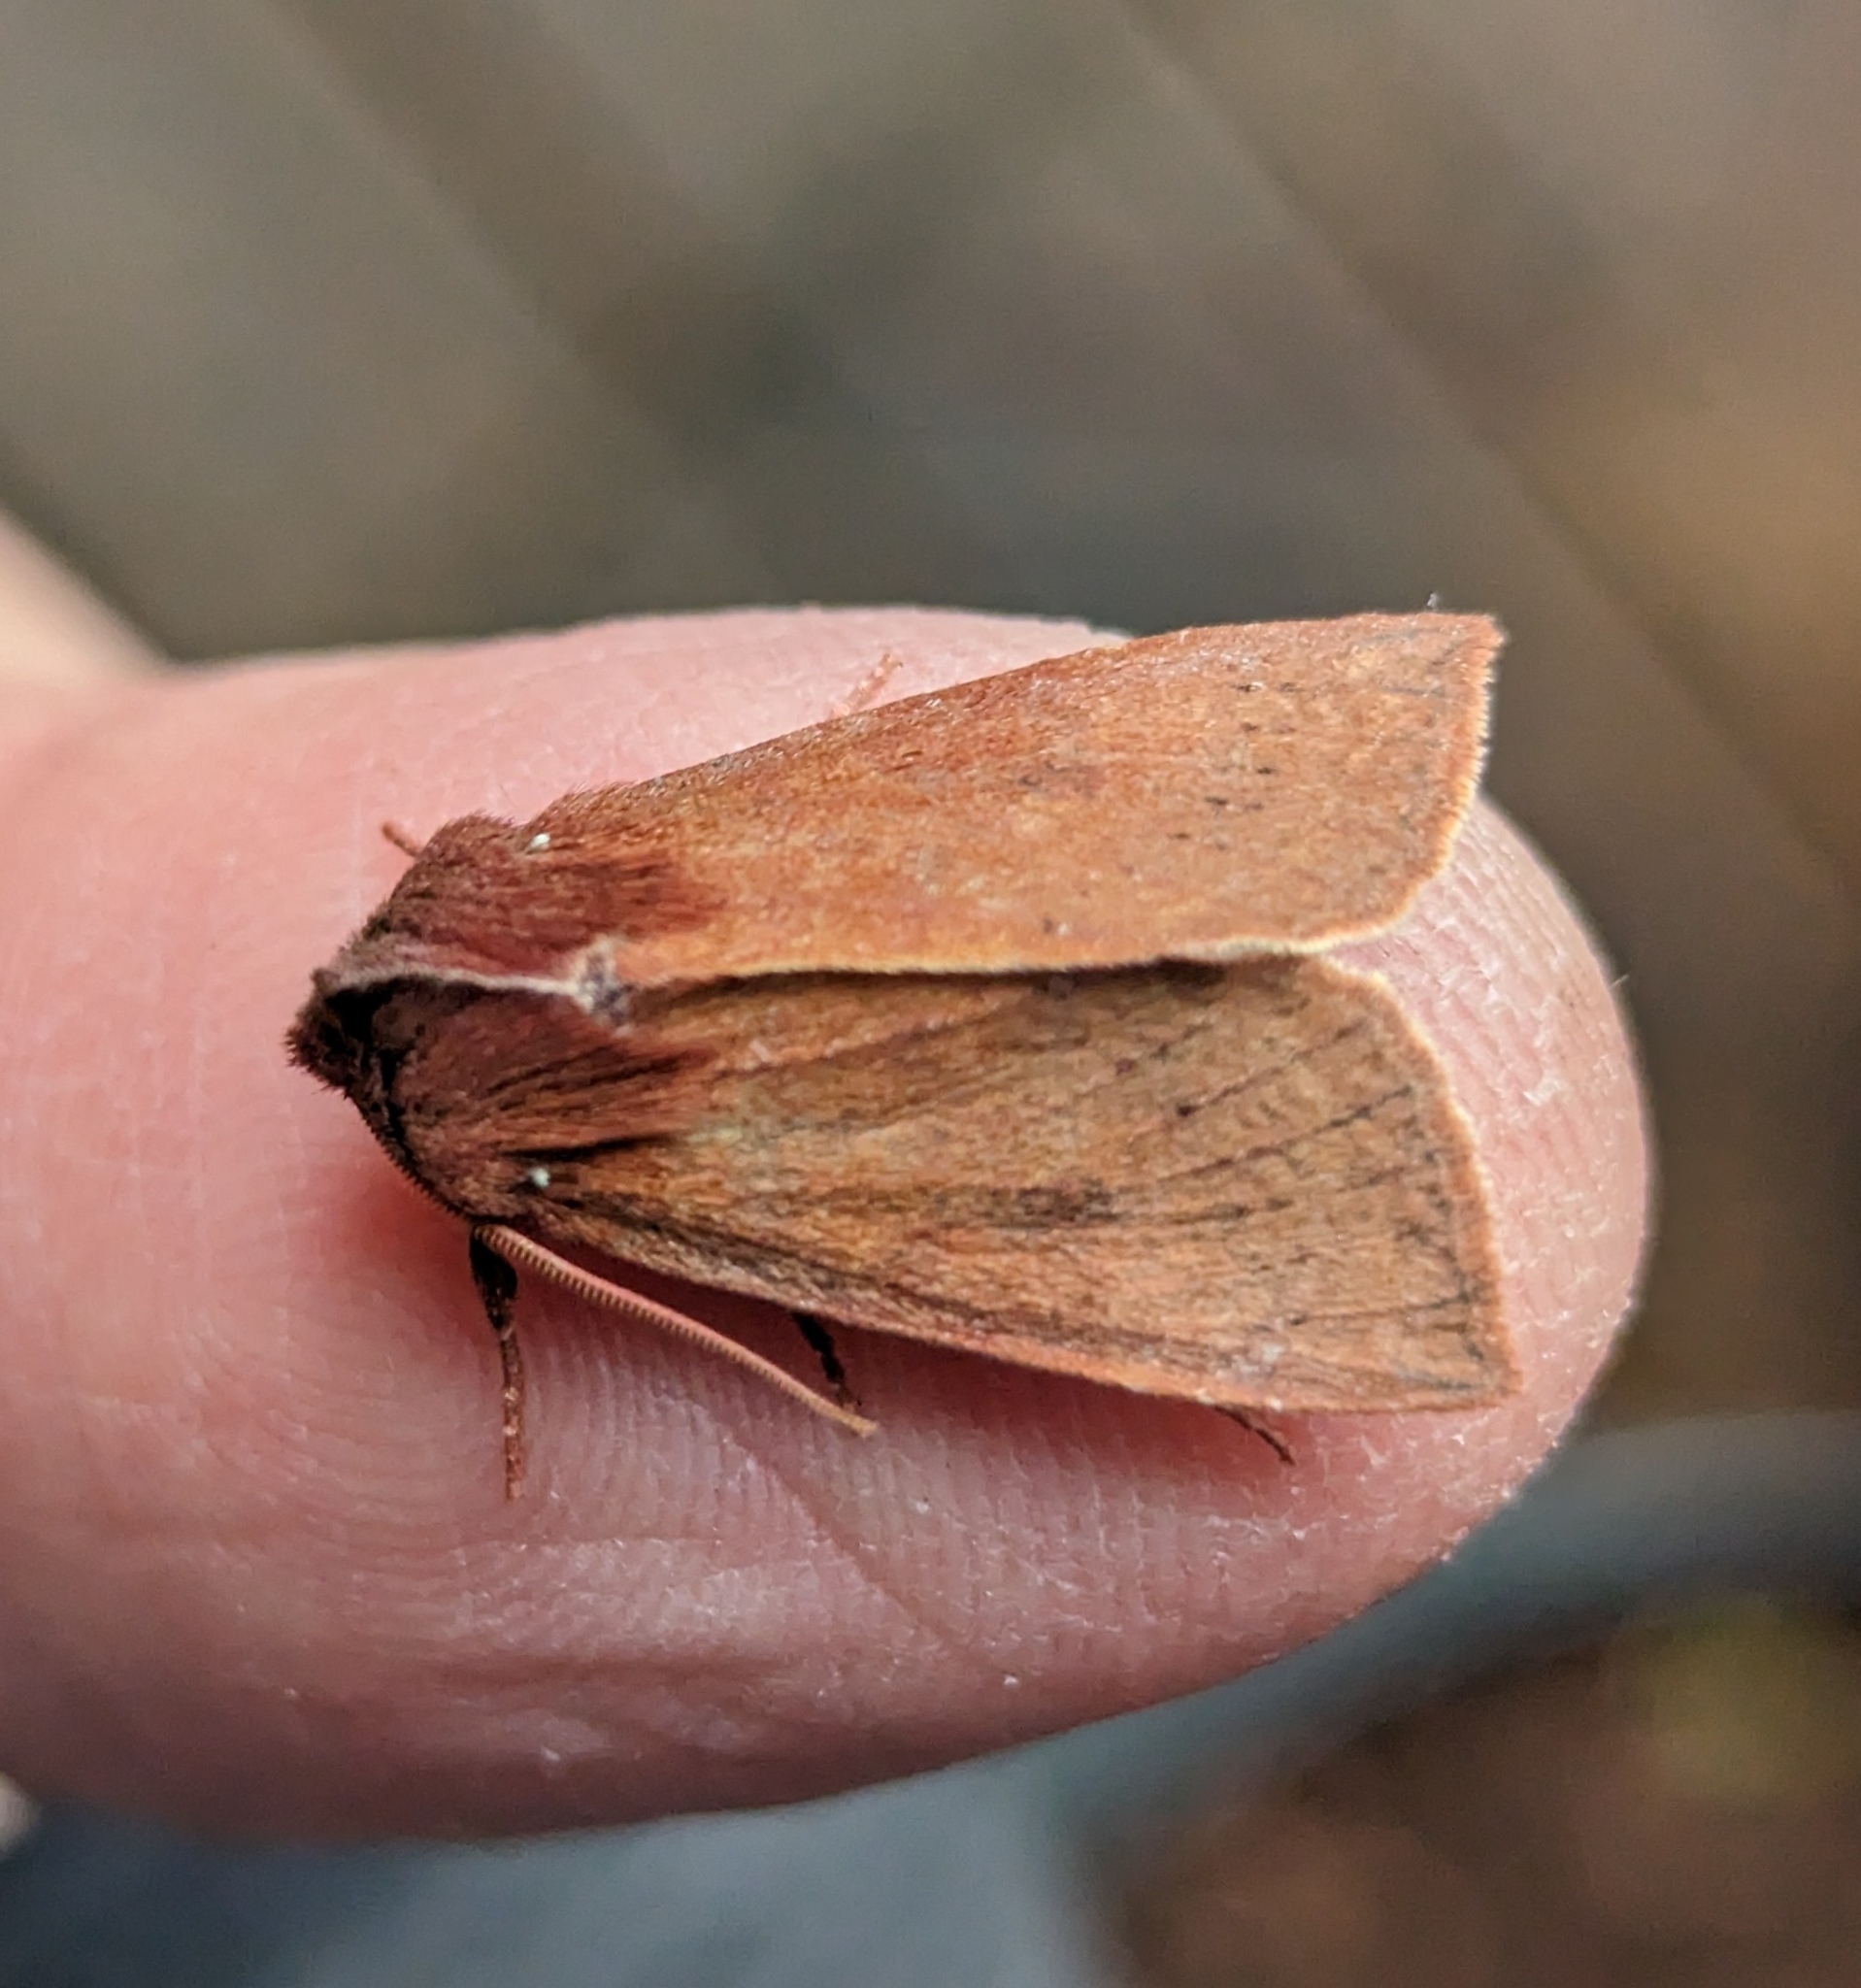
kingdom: Animalia
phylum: Arthropoda
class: Insecta
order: Lepidoptera
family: Noctuidae
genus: Orthosia
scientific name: Orthosia transparens
